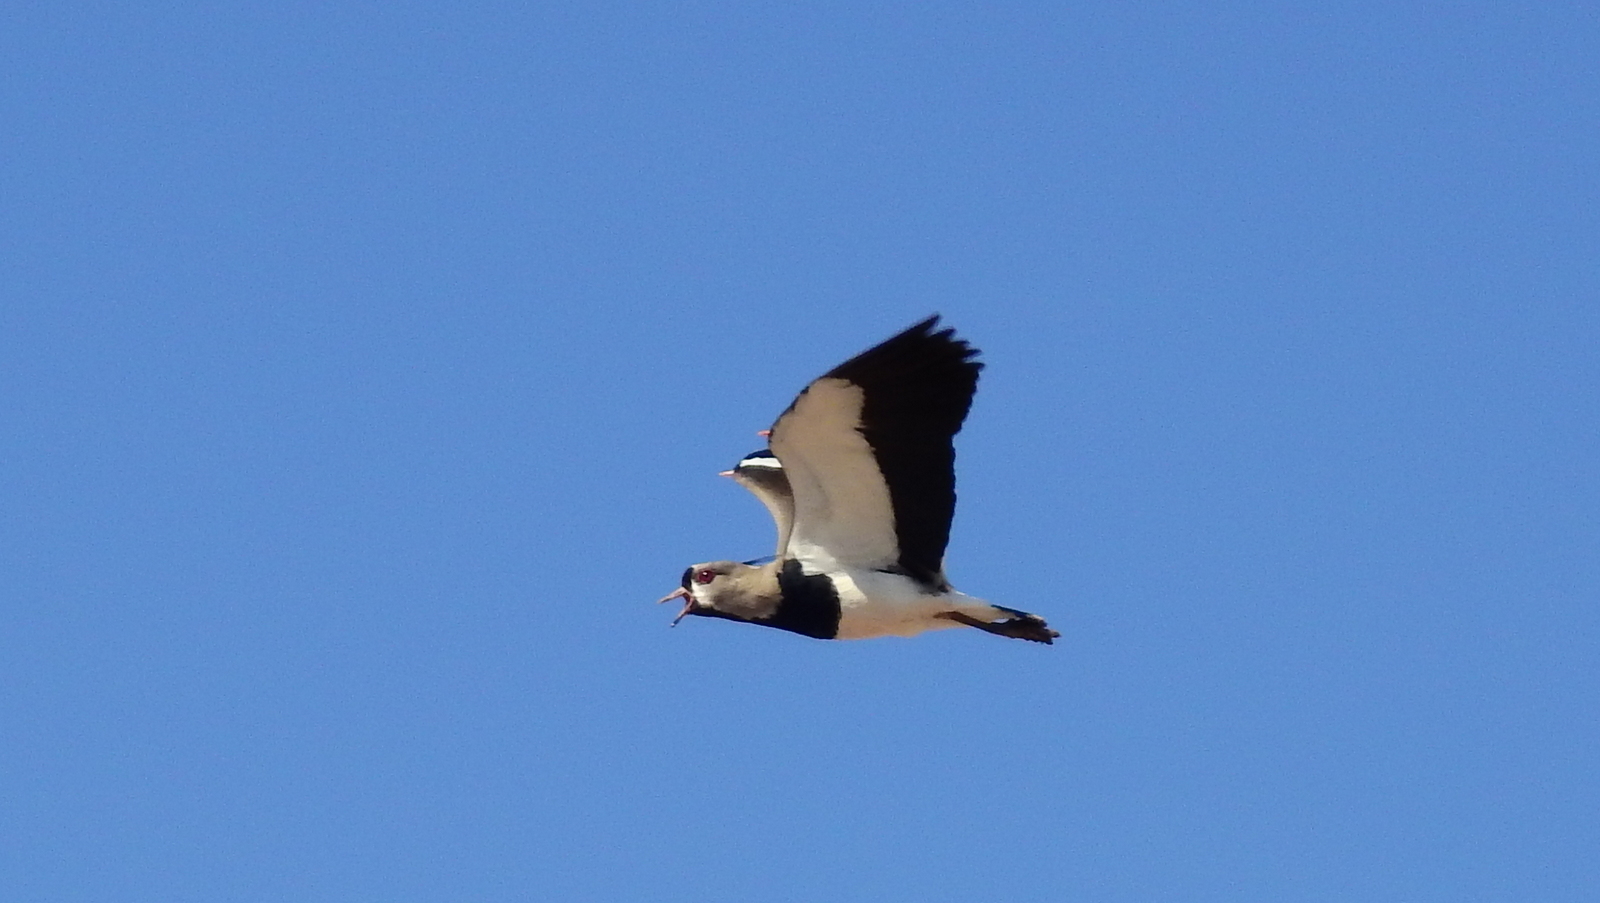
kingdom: Animalia
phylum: Chordata
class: Aves
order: Charadriiformes
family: Charadriidae
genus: Vanellus
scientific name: Vanellus chilensis
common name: Southern lapwing
